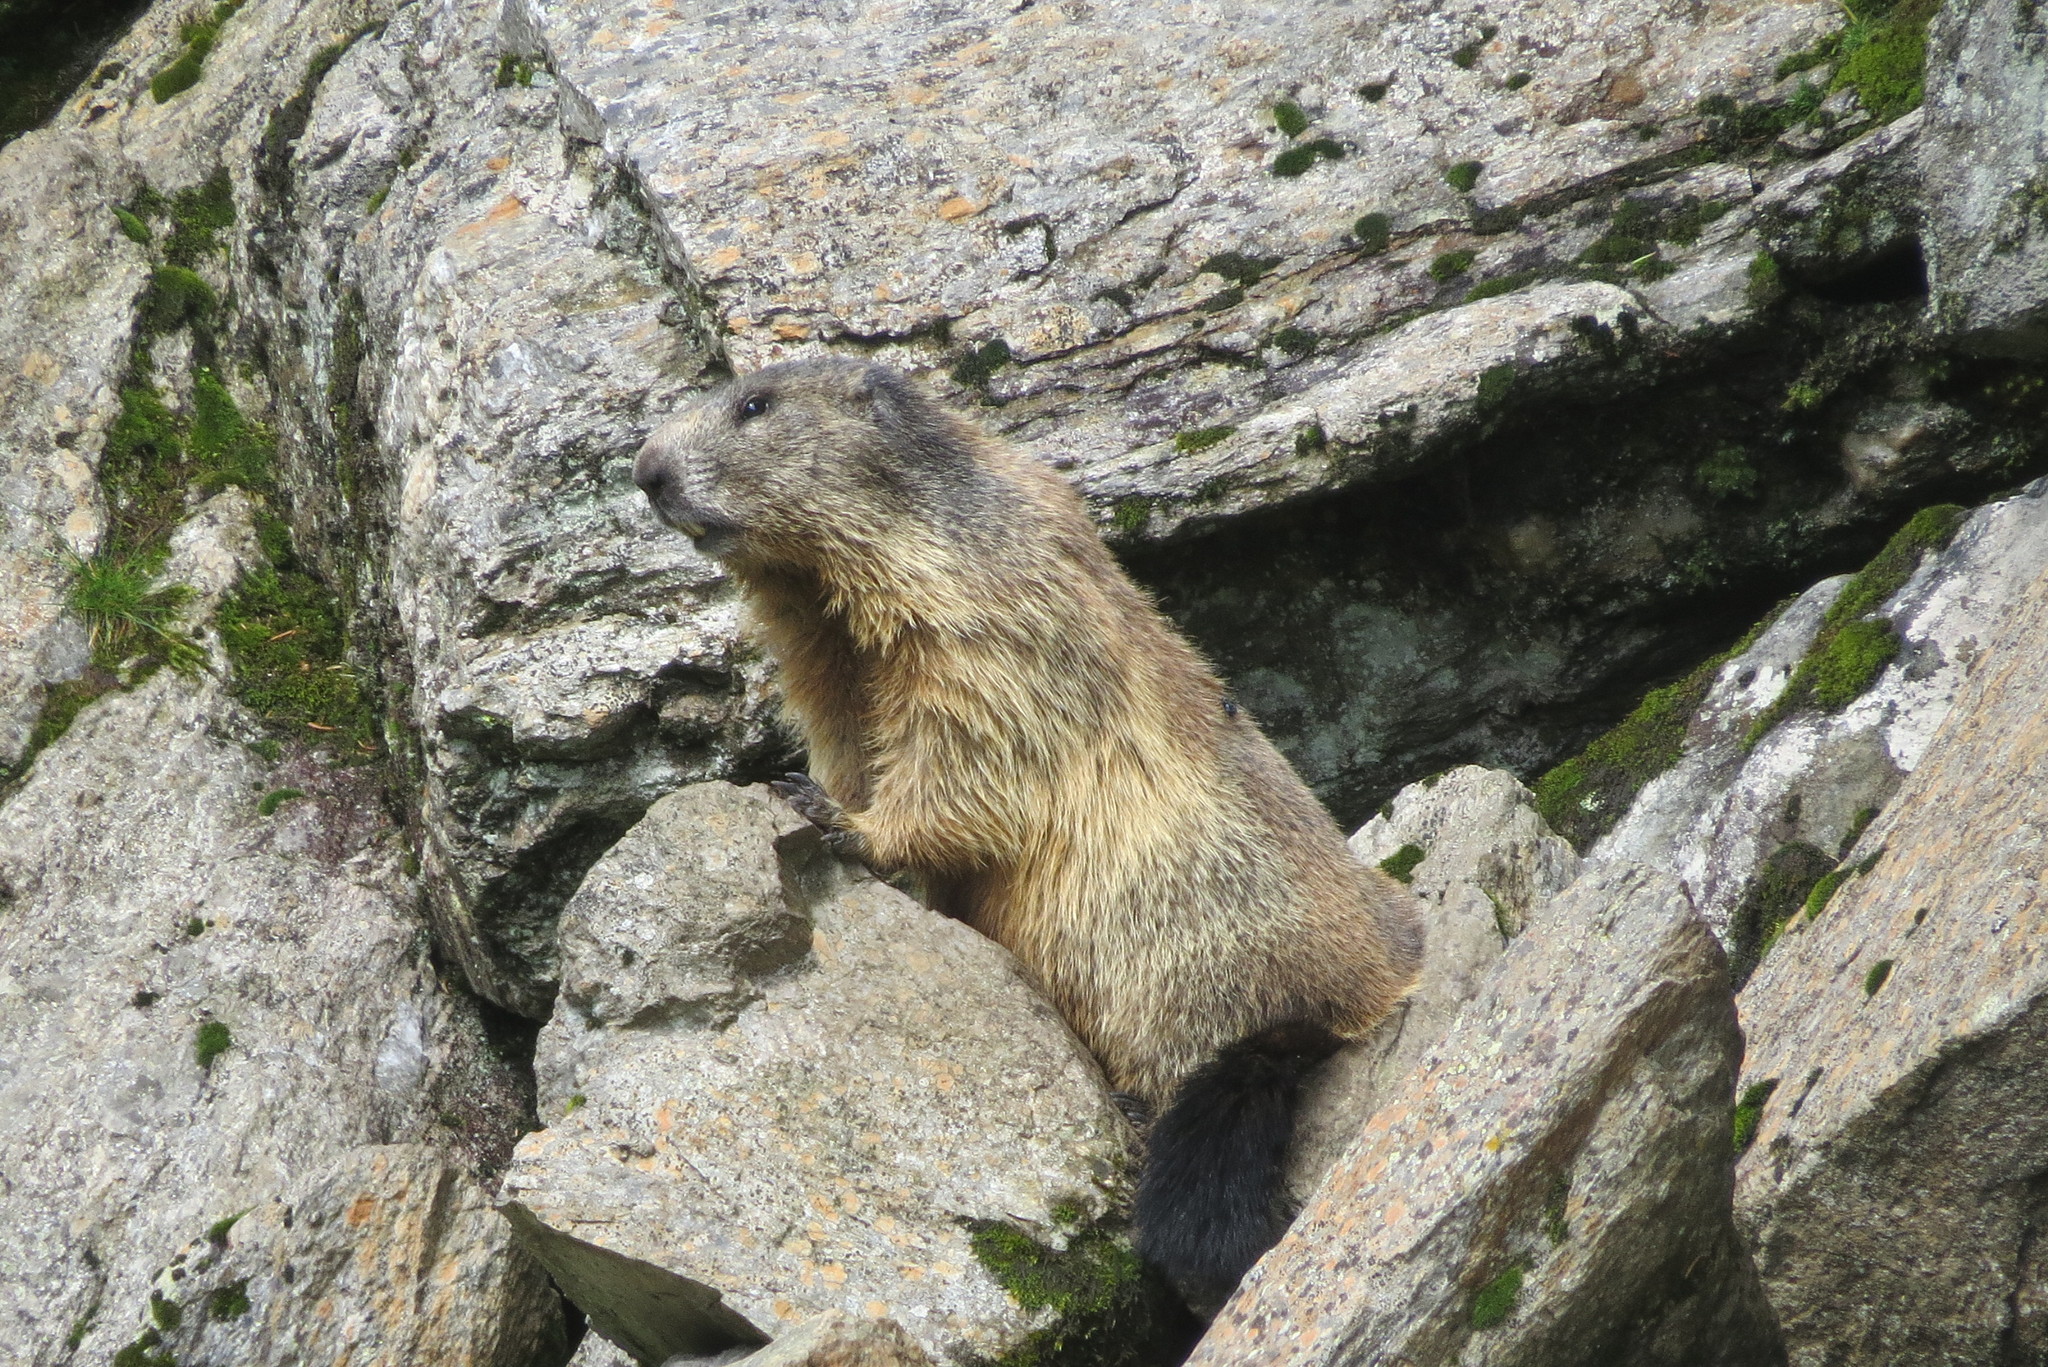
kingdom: Animalia
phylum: Chordata
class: Mammalia
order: Rodentia
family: Sciuridae
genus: Marmota
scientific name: Marmota marmota
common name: Alpine marmot
